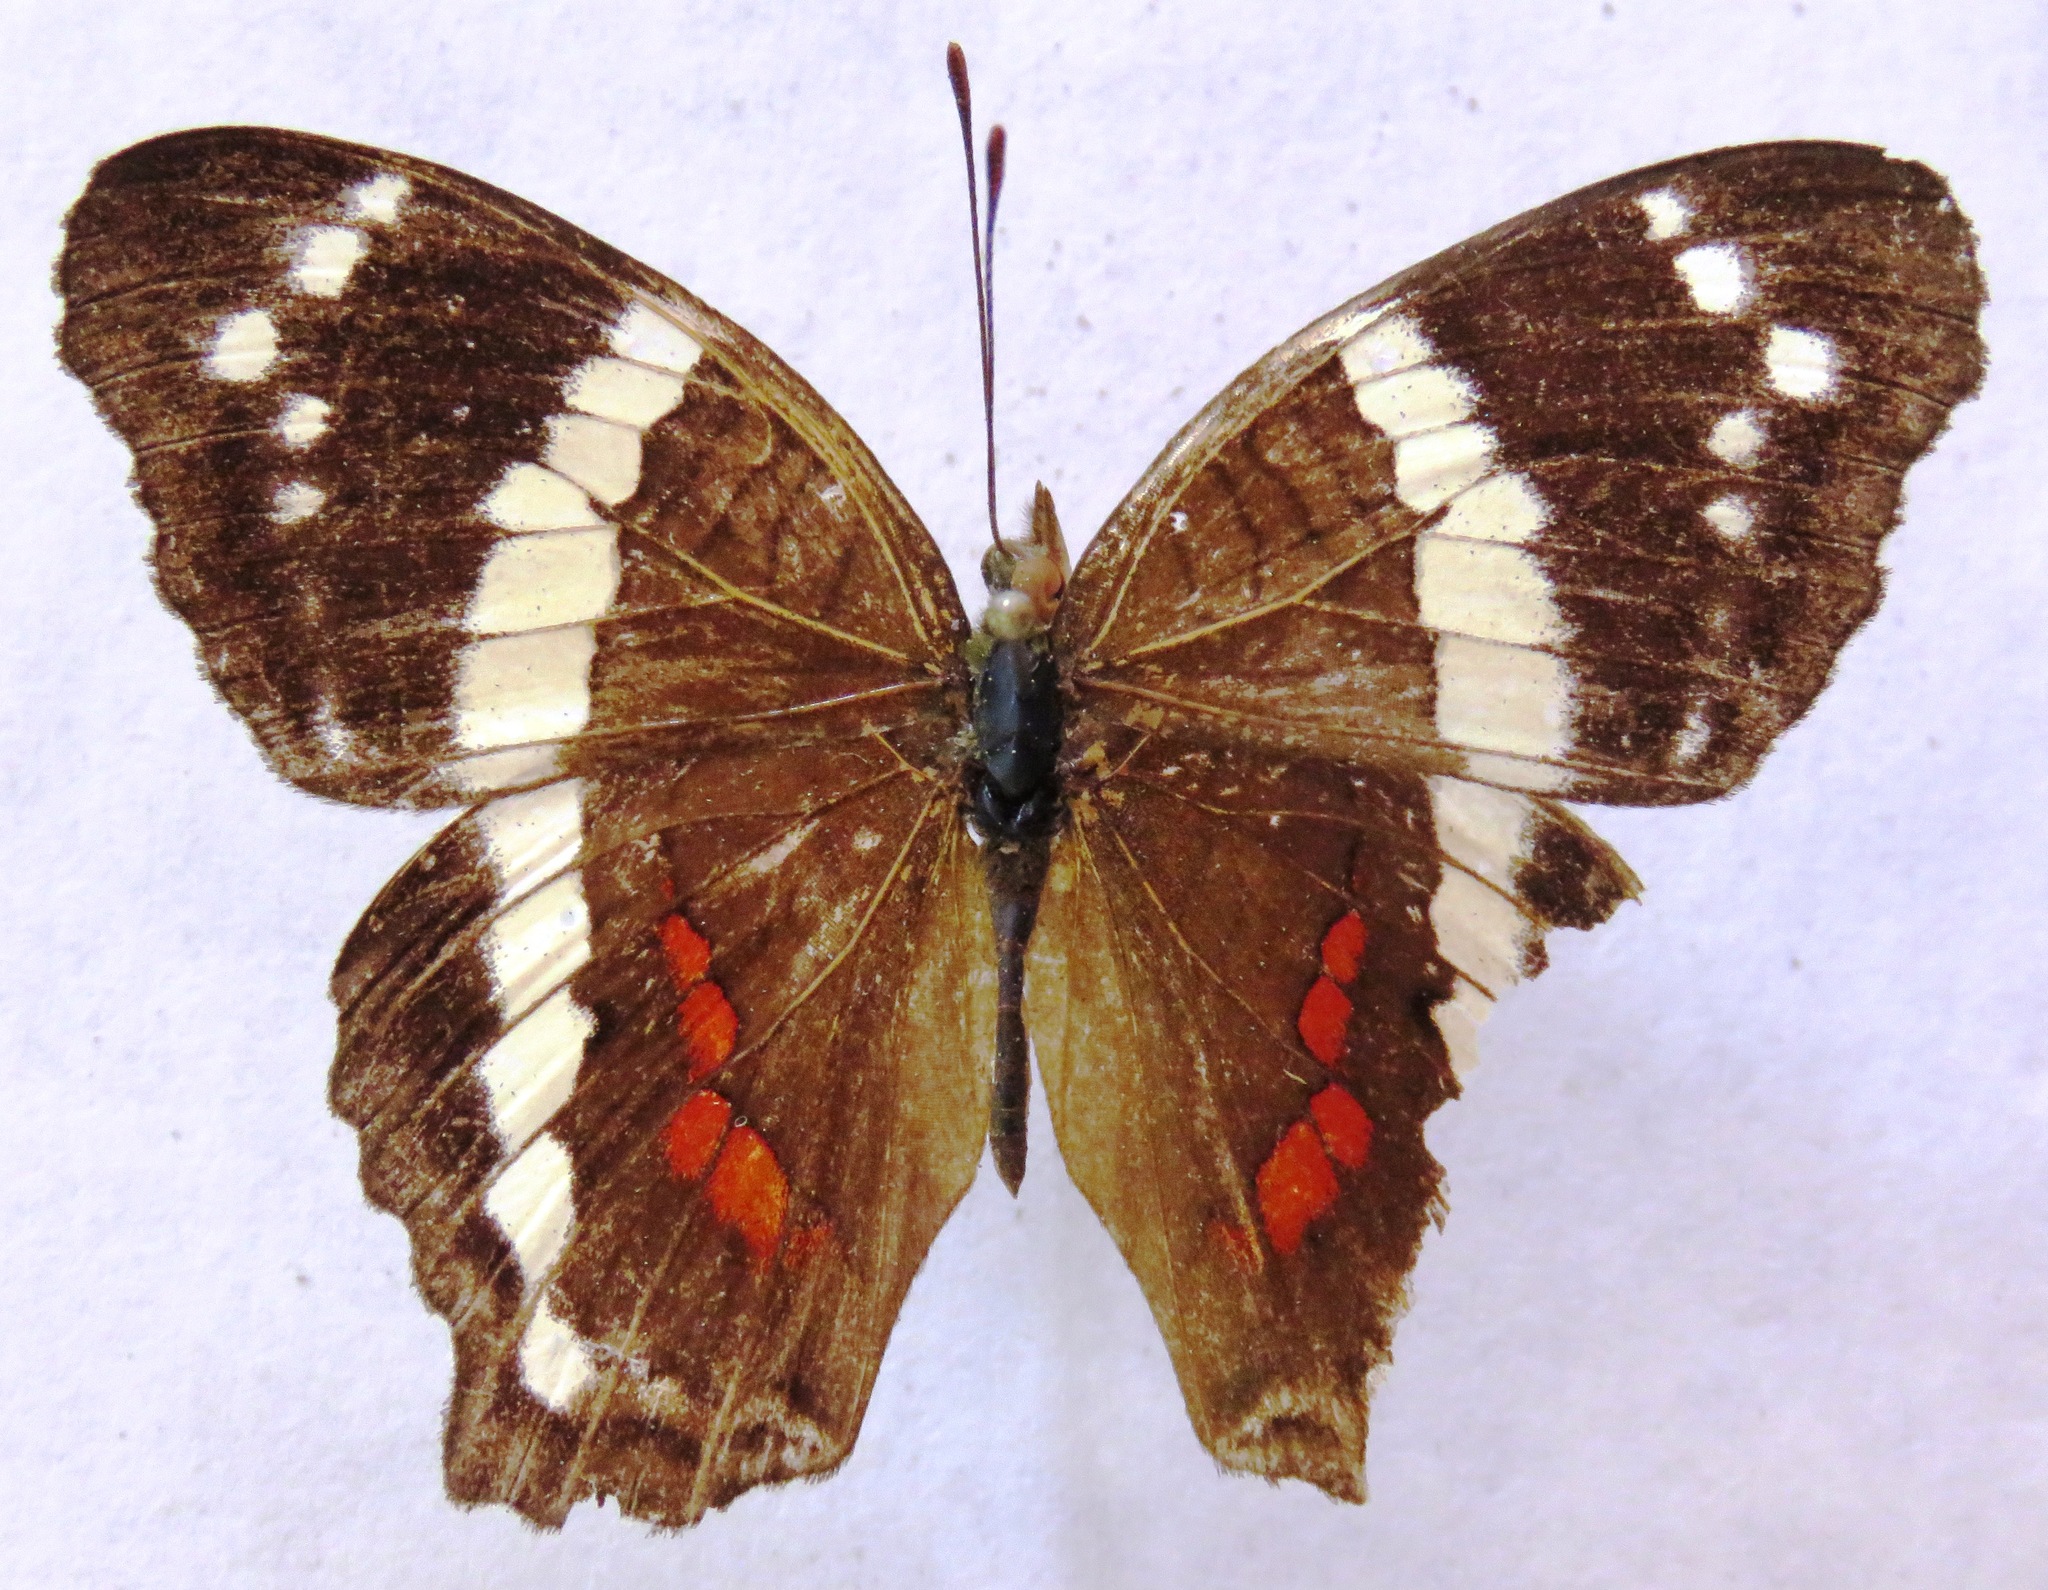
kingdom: Animalia
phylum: Arthropoda
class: Insecta
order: Lepidoptera
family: Nymphalidae
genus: Anartia
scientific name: Anartia fatima
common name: Banded peacock
